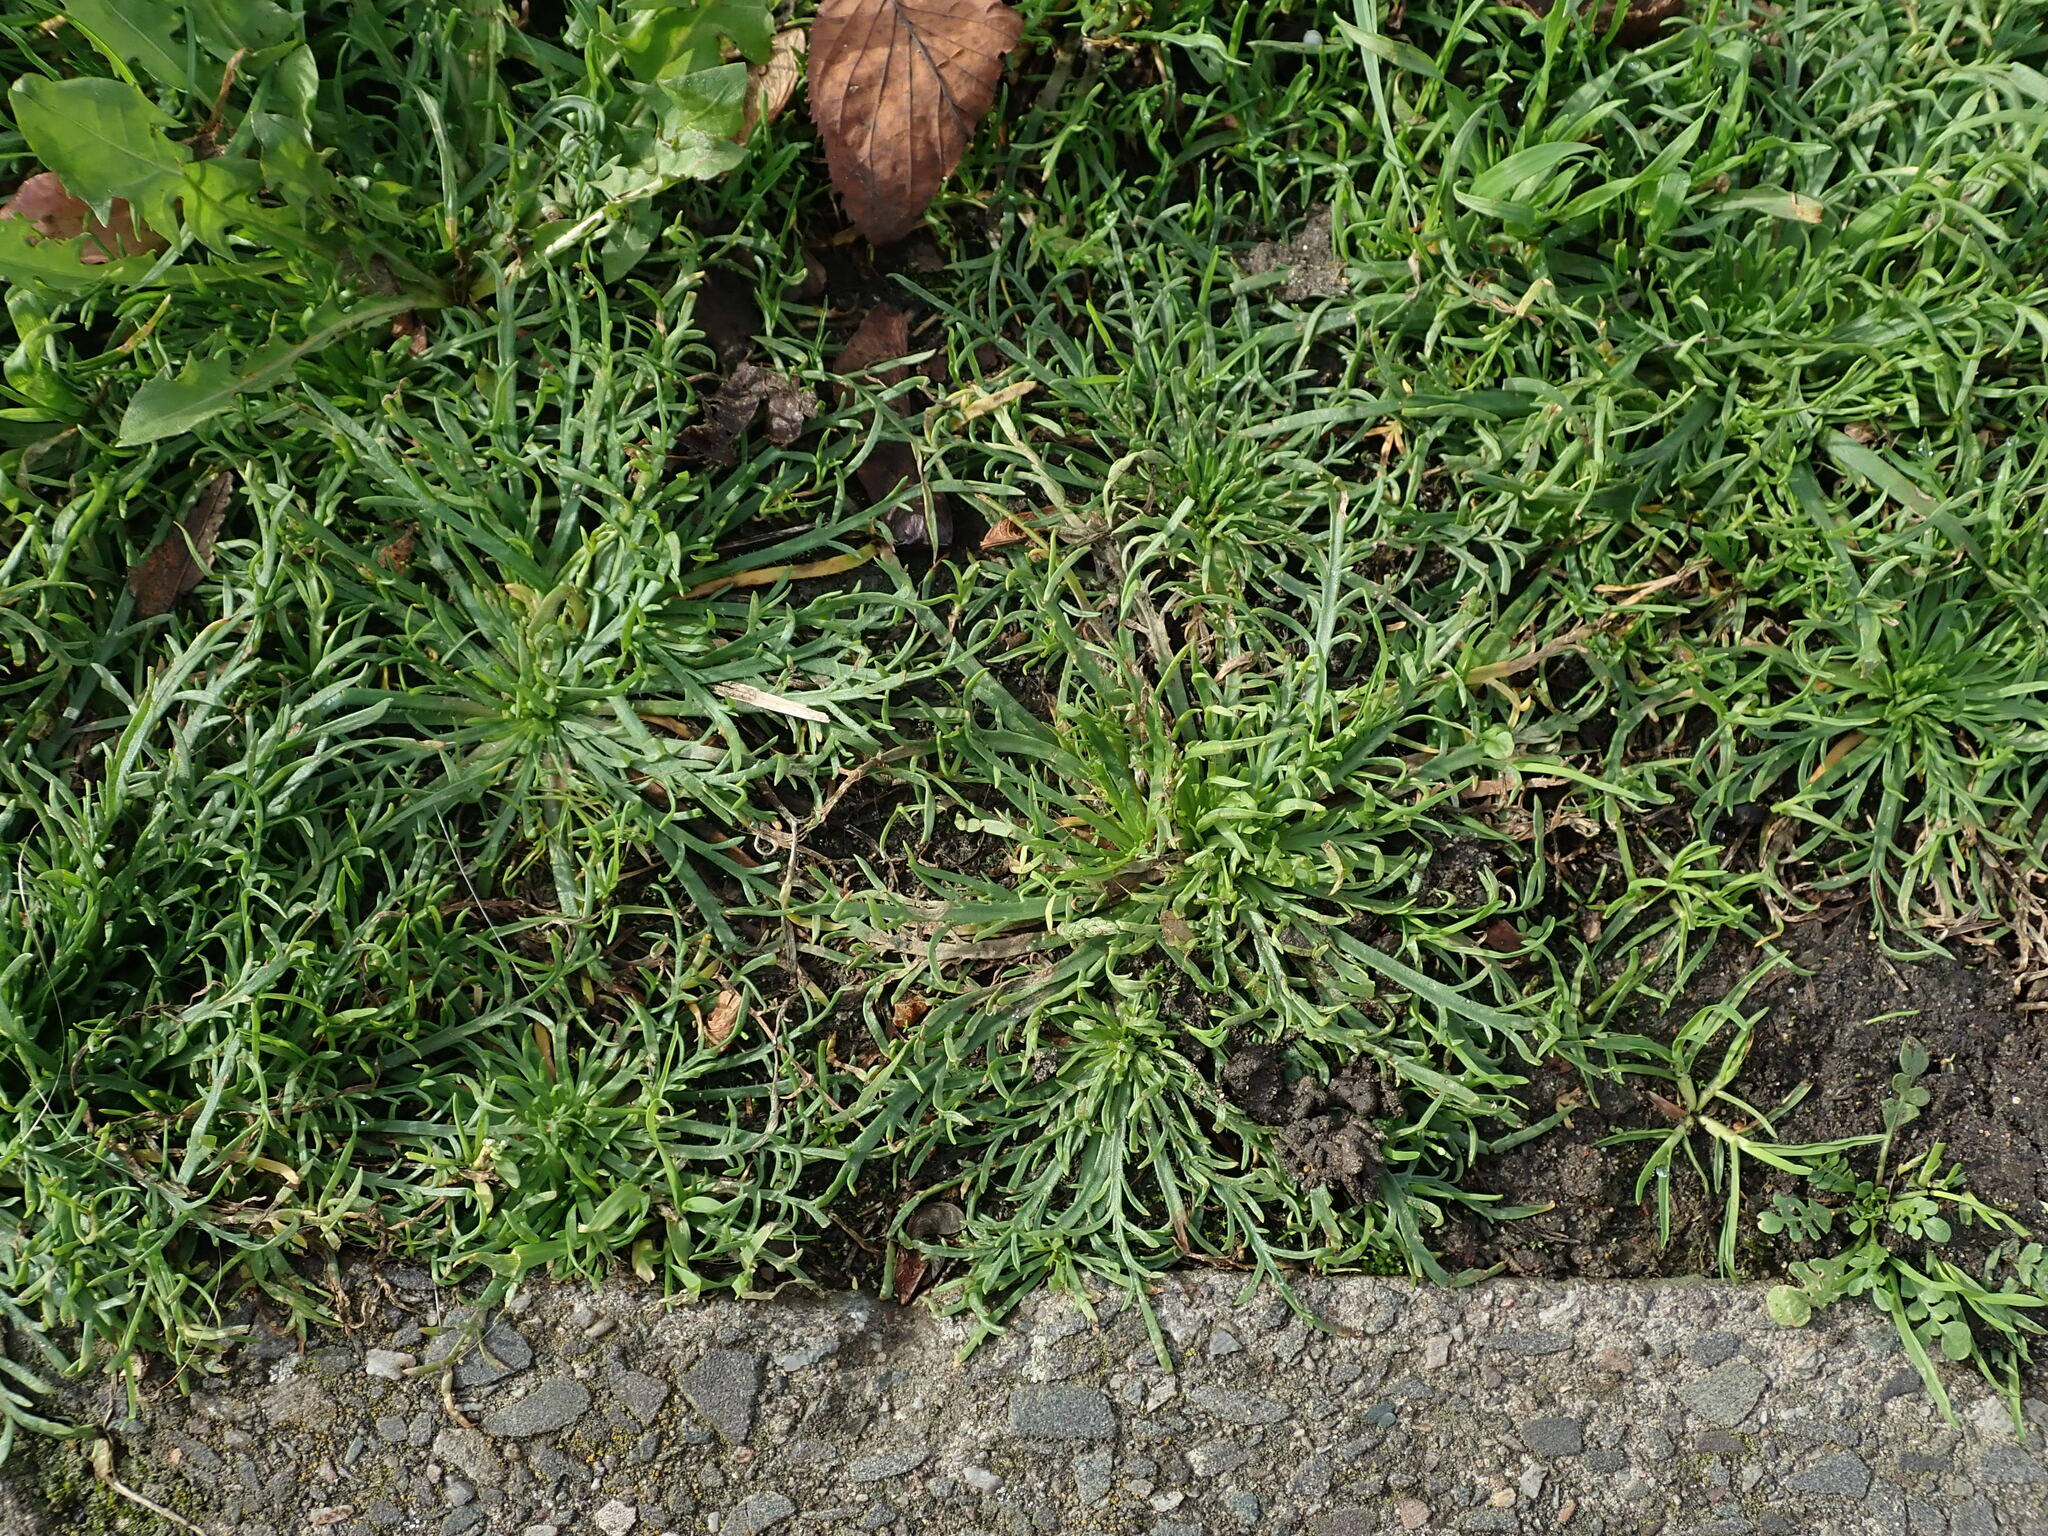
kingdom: Plantae
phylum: Tracheophyta
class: Magnoliopsida
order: Lamiales
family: Plantaginaceae
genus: Plantago
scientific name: Plantago coronopus
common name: Buck's-horn plantain
